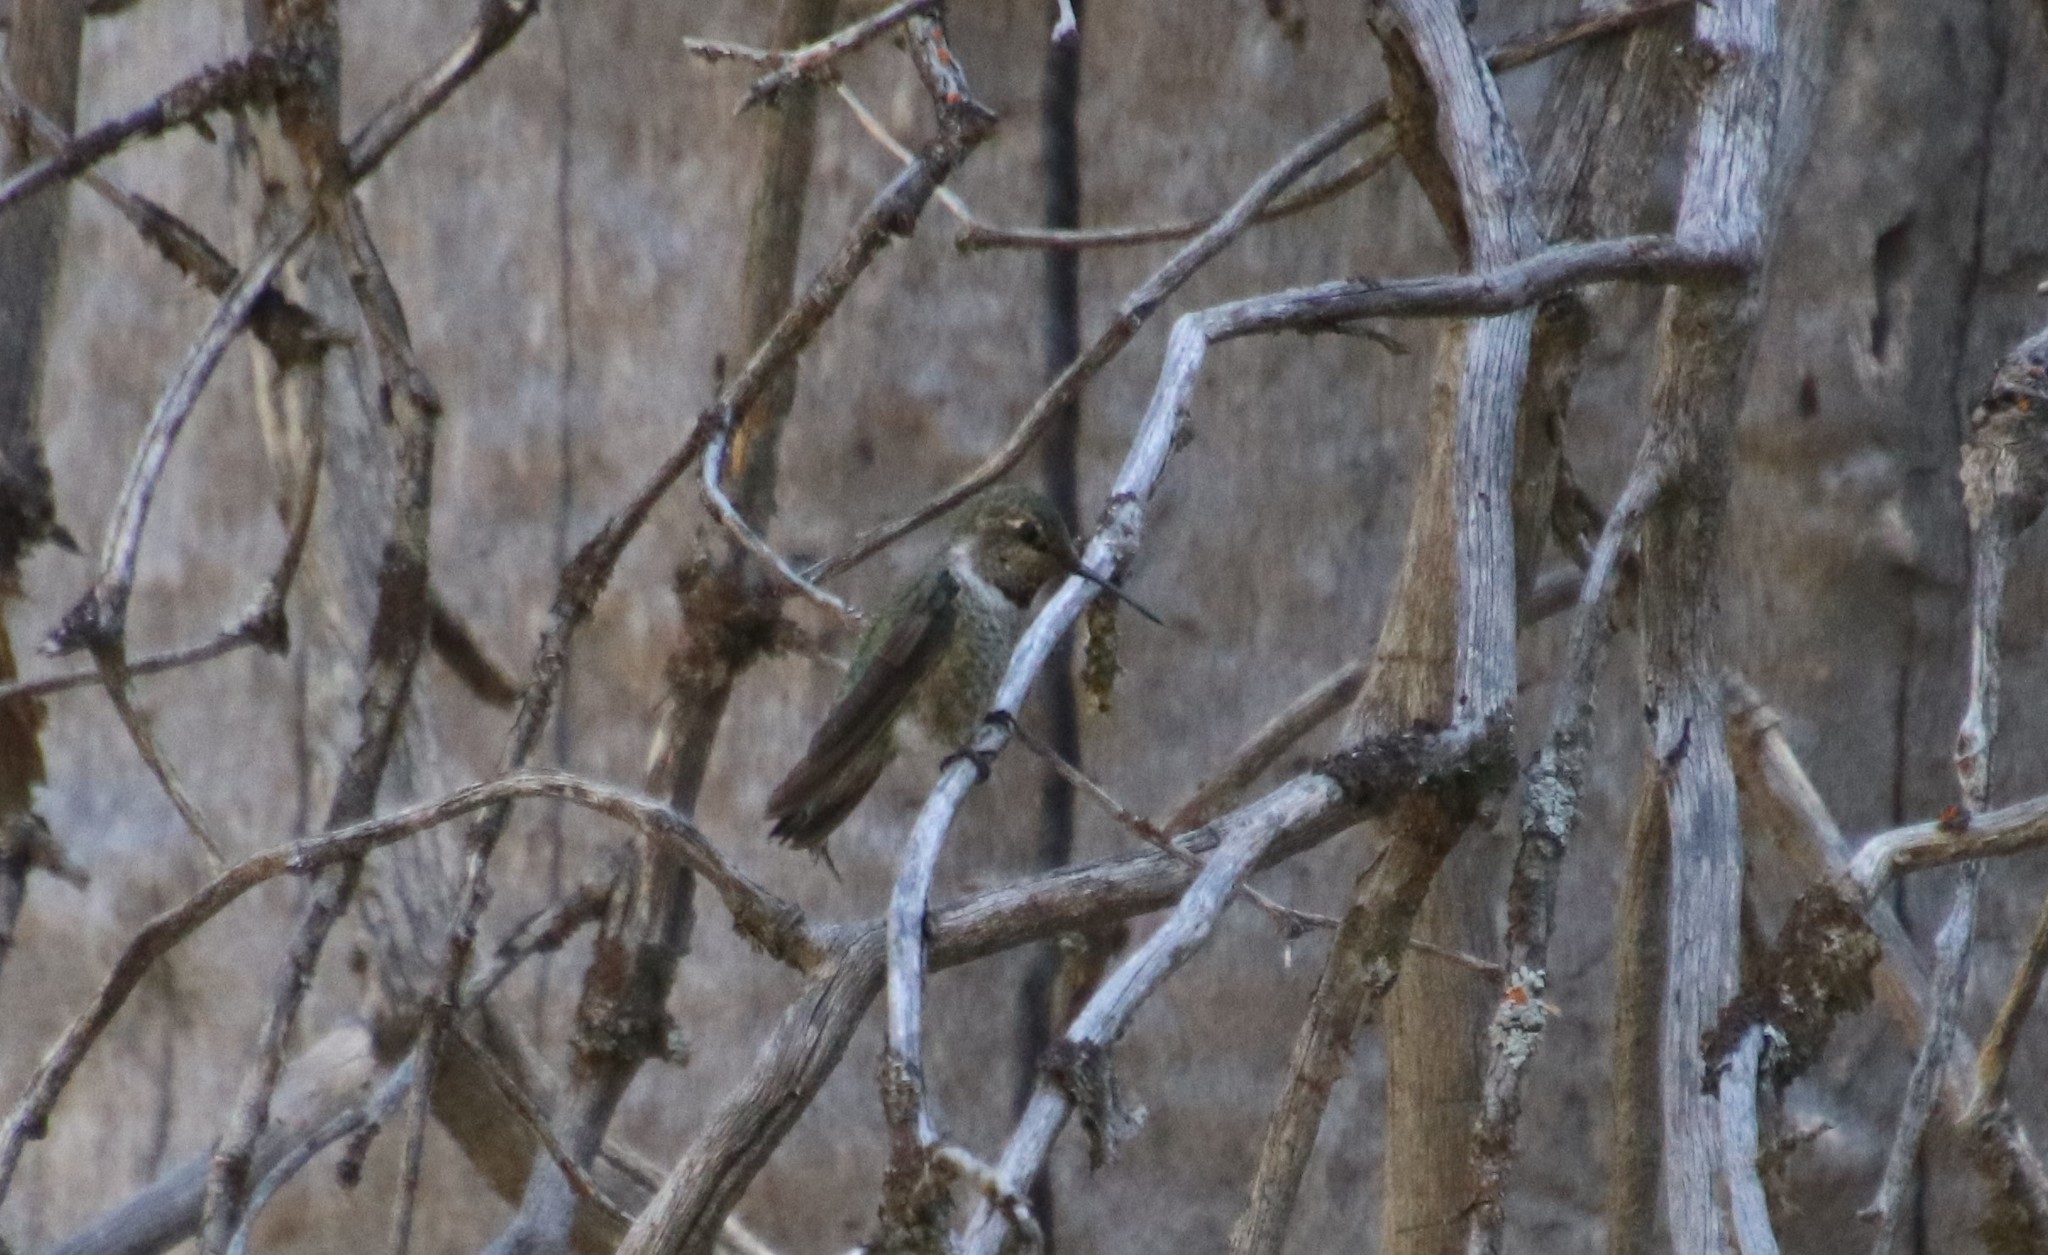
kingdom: Animalia
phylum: Chordata
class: Aves
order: Apodiformes
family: Trochilidae
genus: Calypte
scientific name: Calypte anna
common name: Anna's hummingbird
